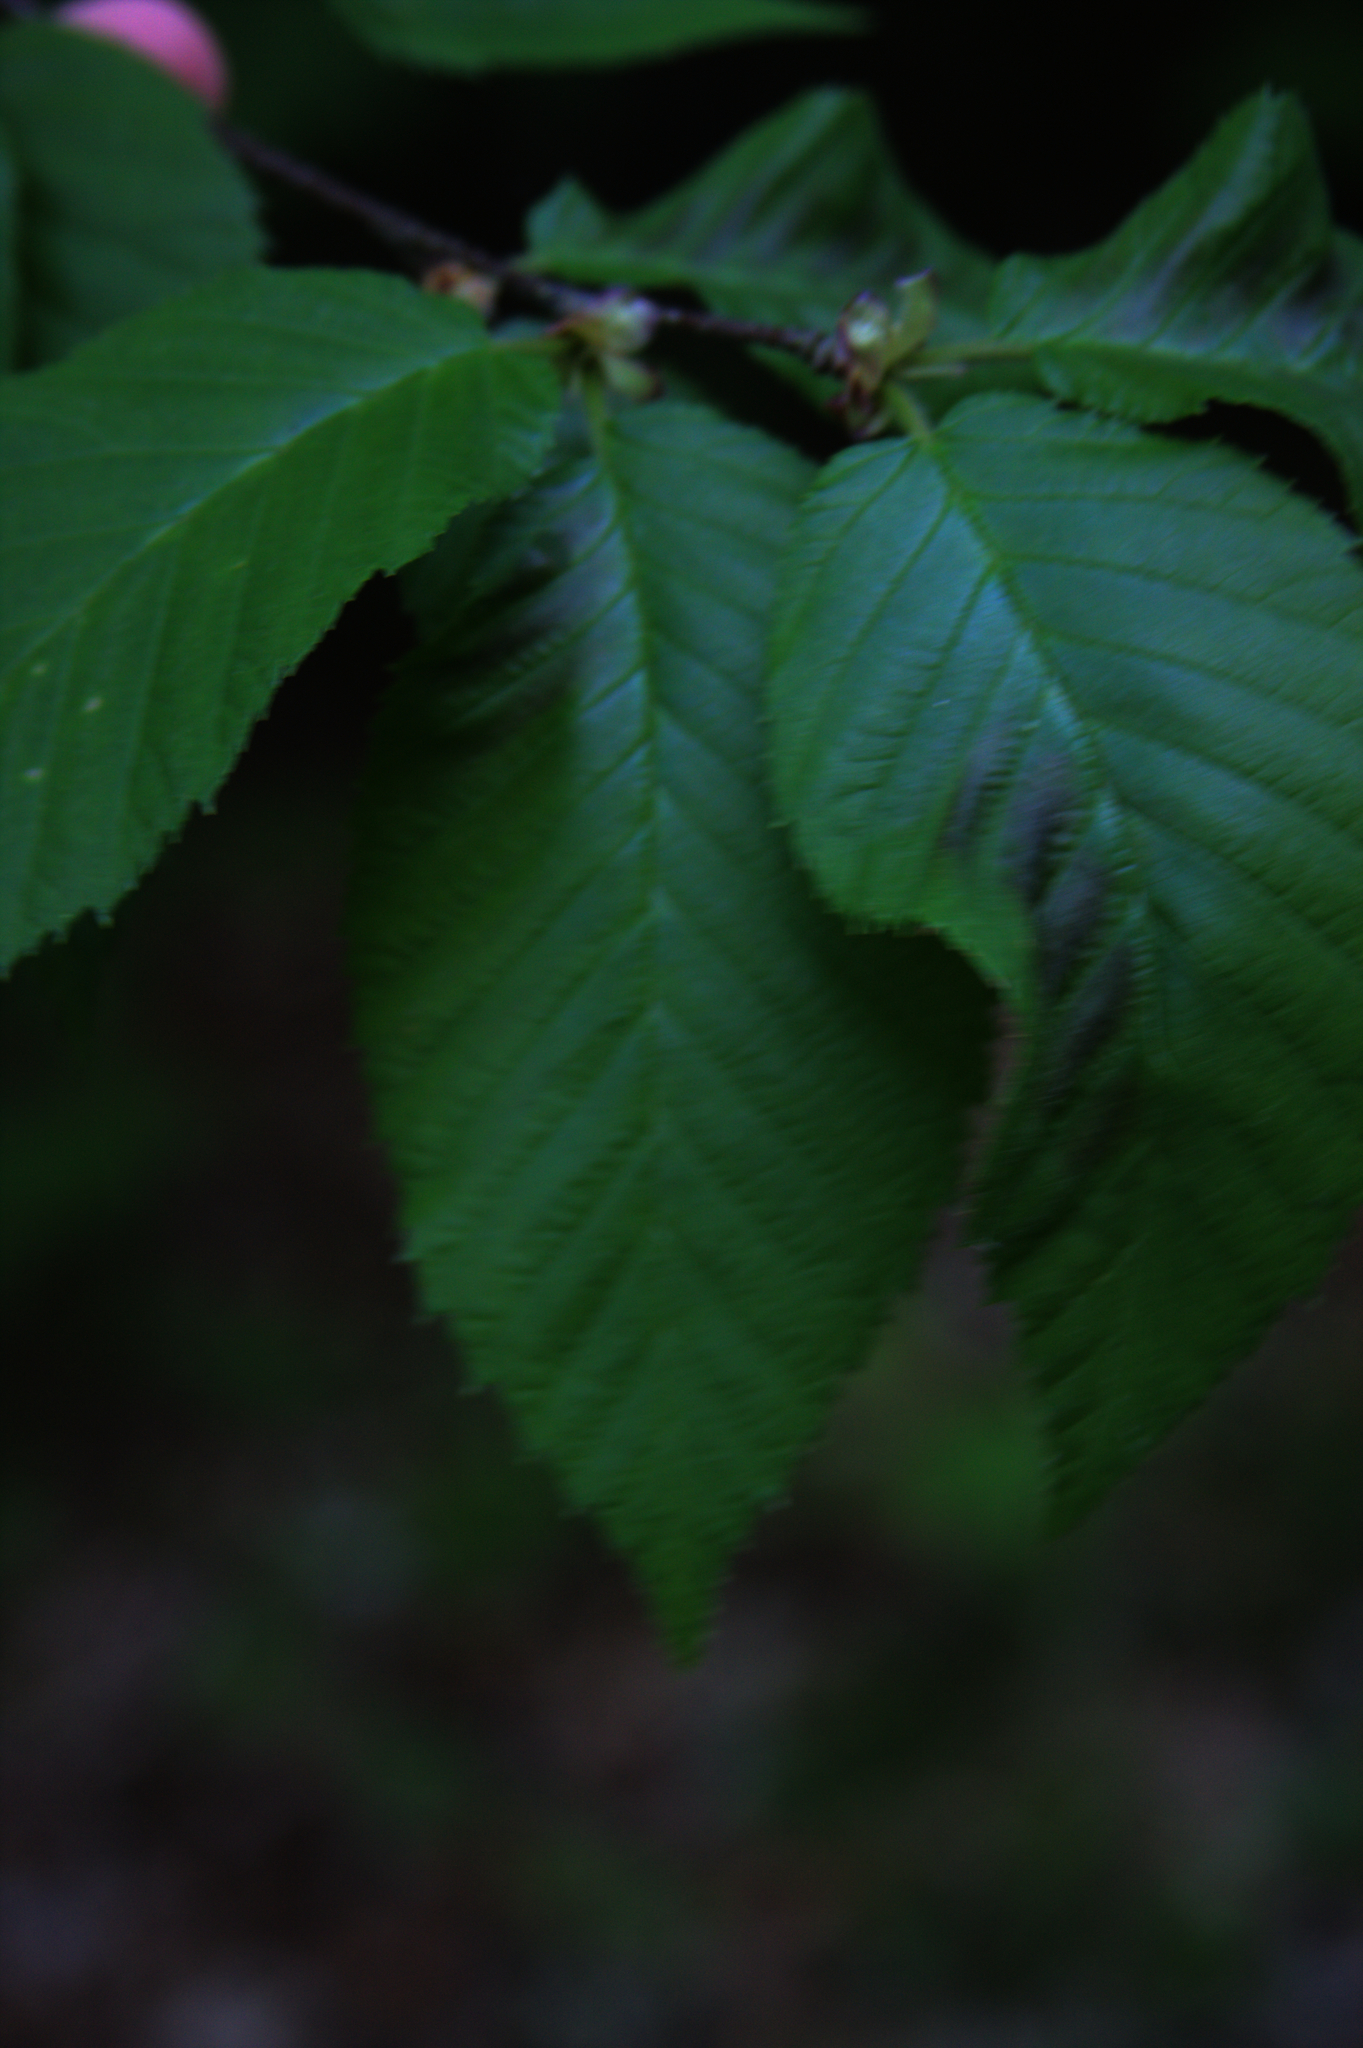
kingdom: Plantae
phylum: Tracheophyta
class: Magnoliopsida
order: Fagales
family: Betulaceae
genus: Betula
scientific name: Betula alleghaniensis
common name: Yellow birch
